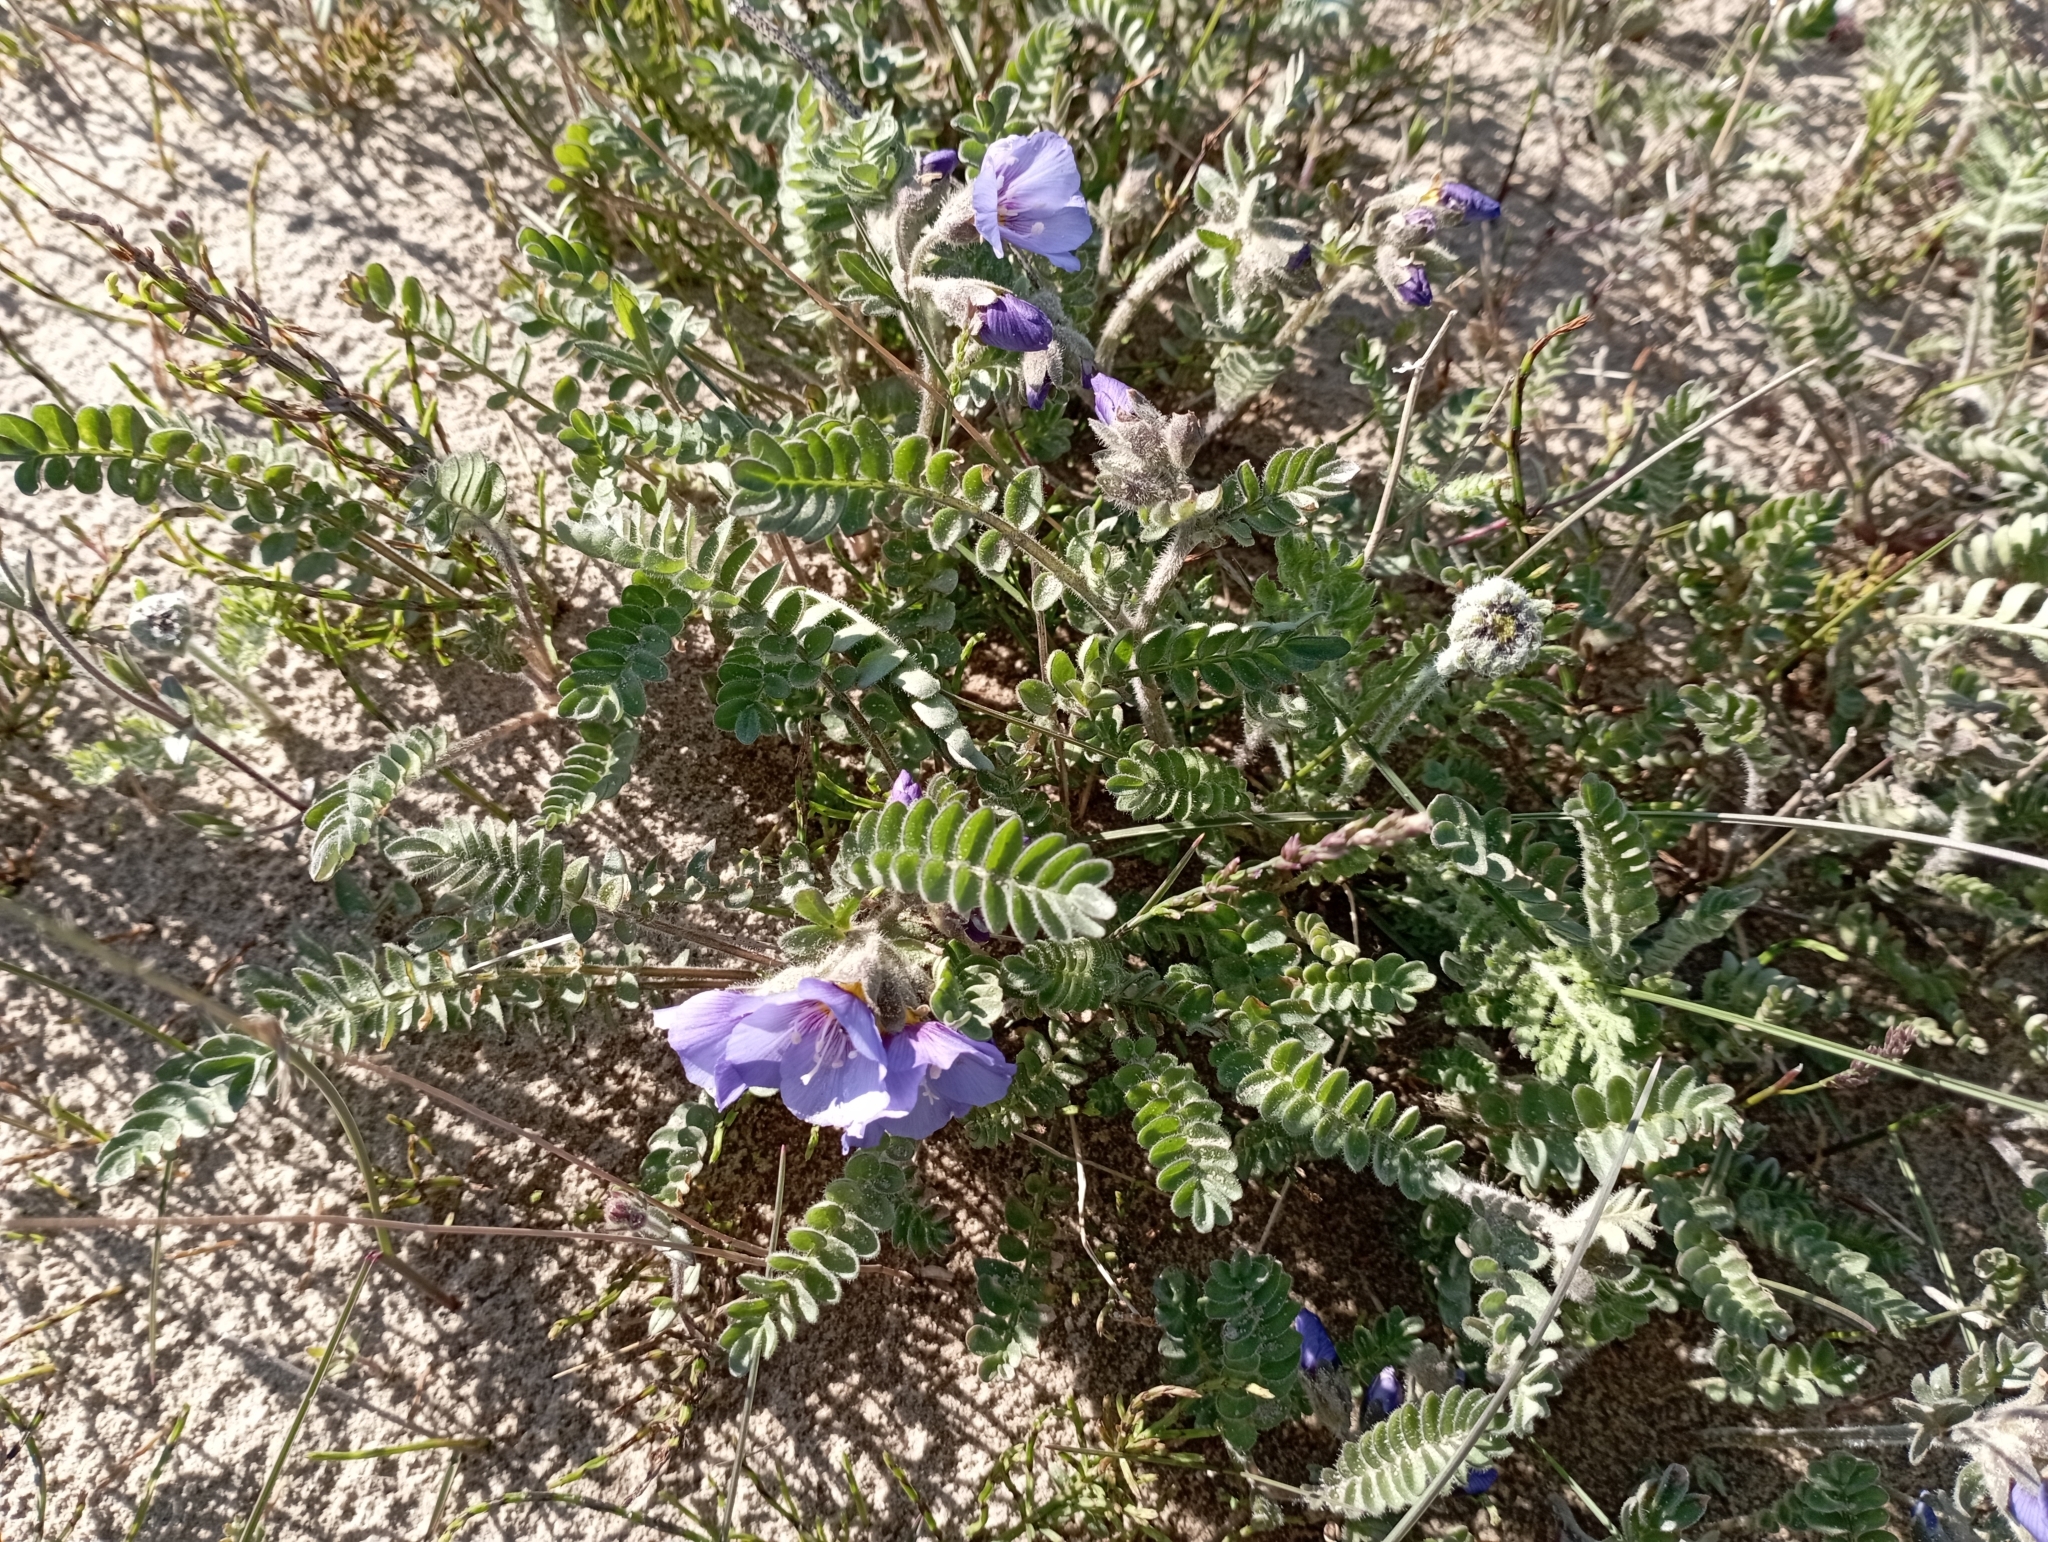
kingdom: Plantae
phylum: Tracheophyta
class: Magnoliopsida
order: Ericales
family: Polemoniaceae
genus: Polemonium
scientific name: Polemonium boreale
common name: Boreal jacob's-ladder
